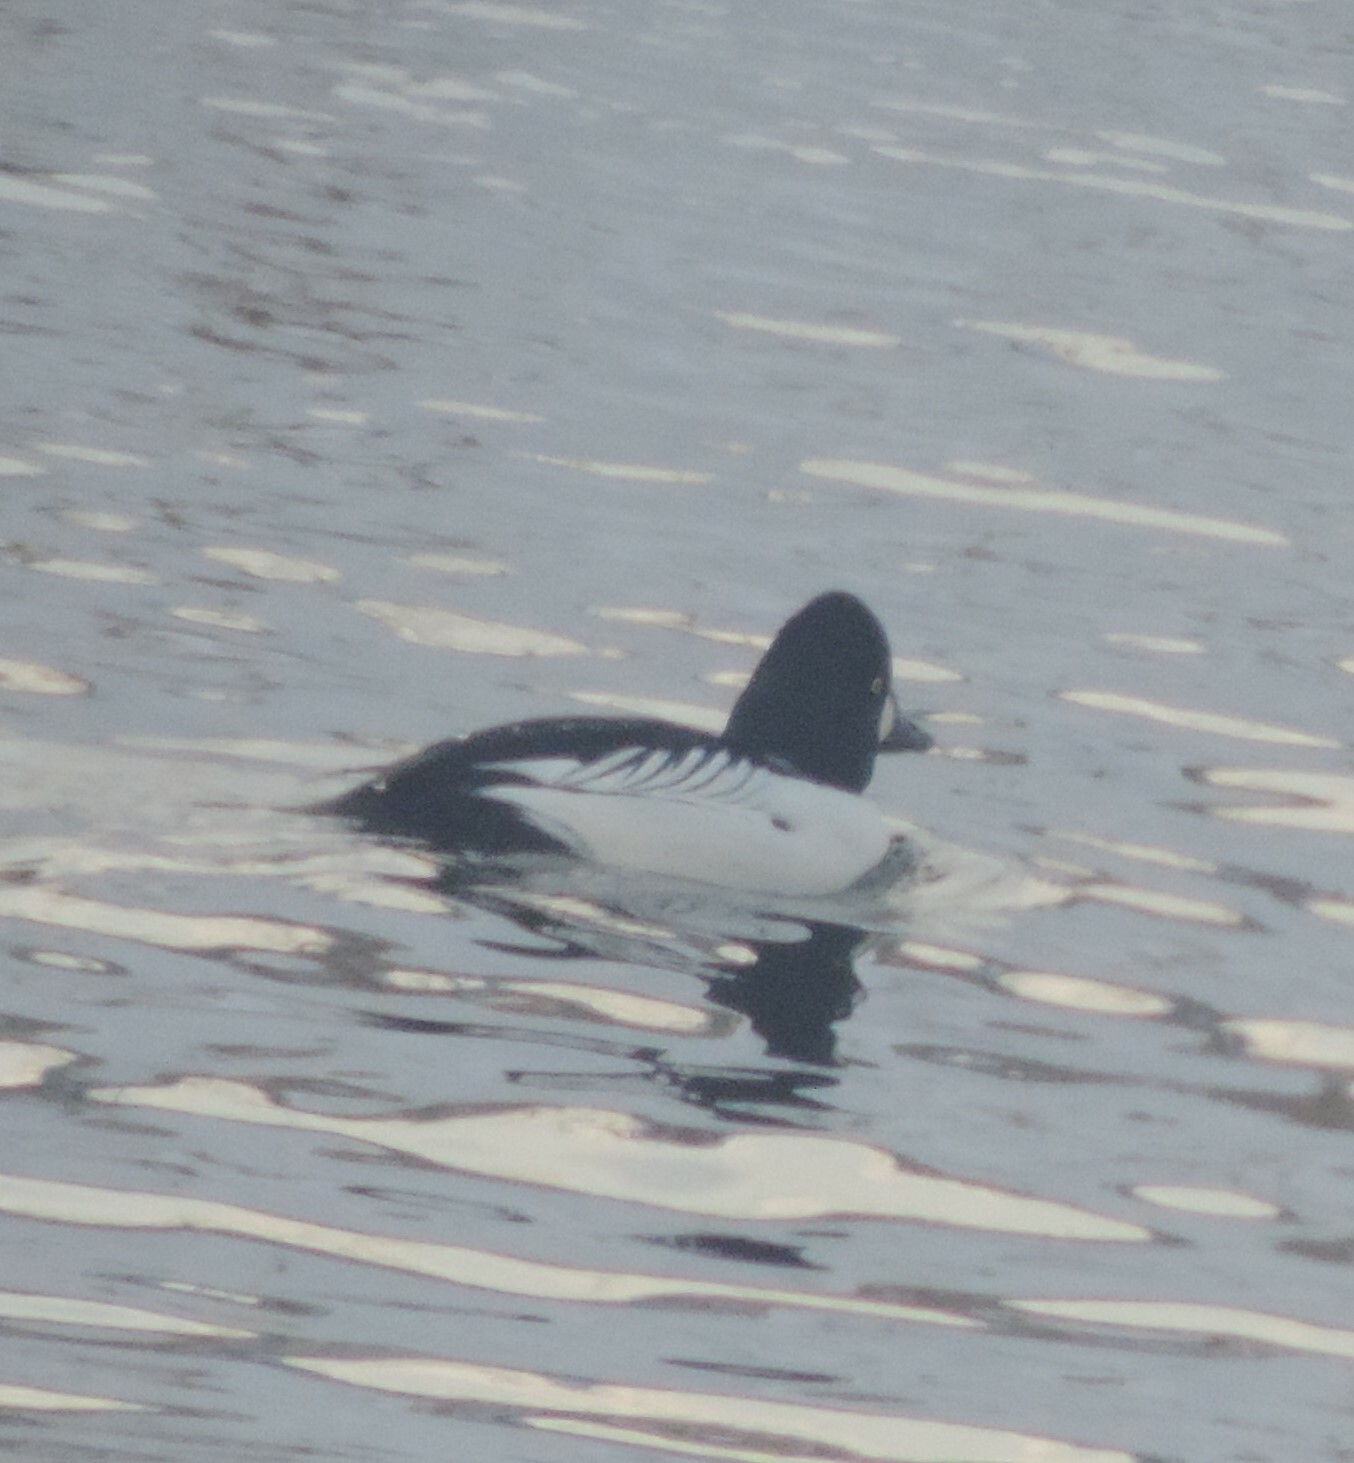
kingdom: Animalia
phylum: Chordata
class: Aves
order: Anseriformes
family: Anatidae
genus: Bucephala
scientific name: Bucephala clangula
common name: Common goldeneye
